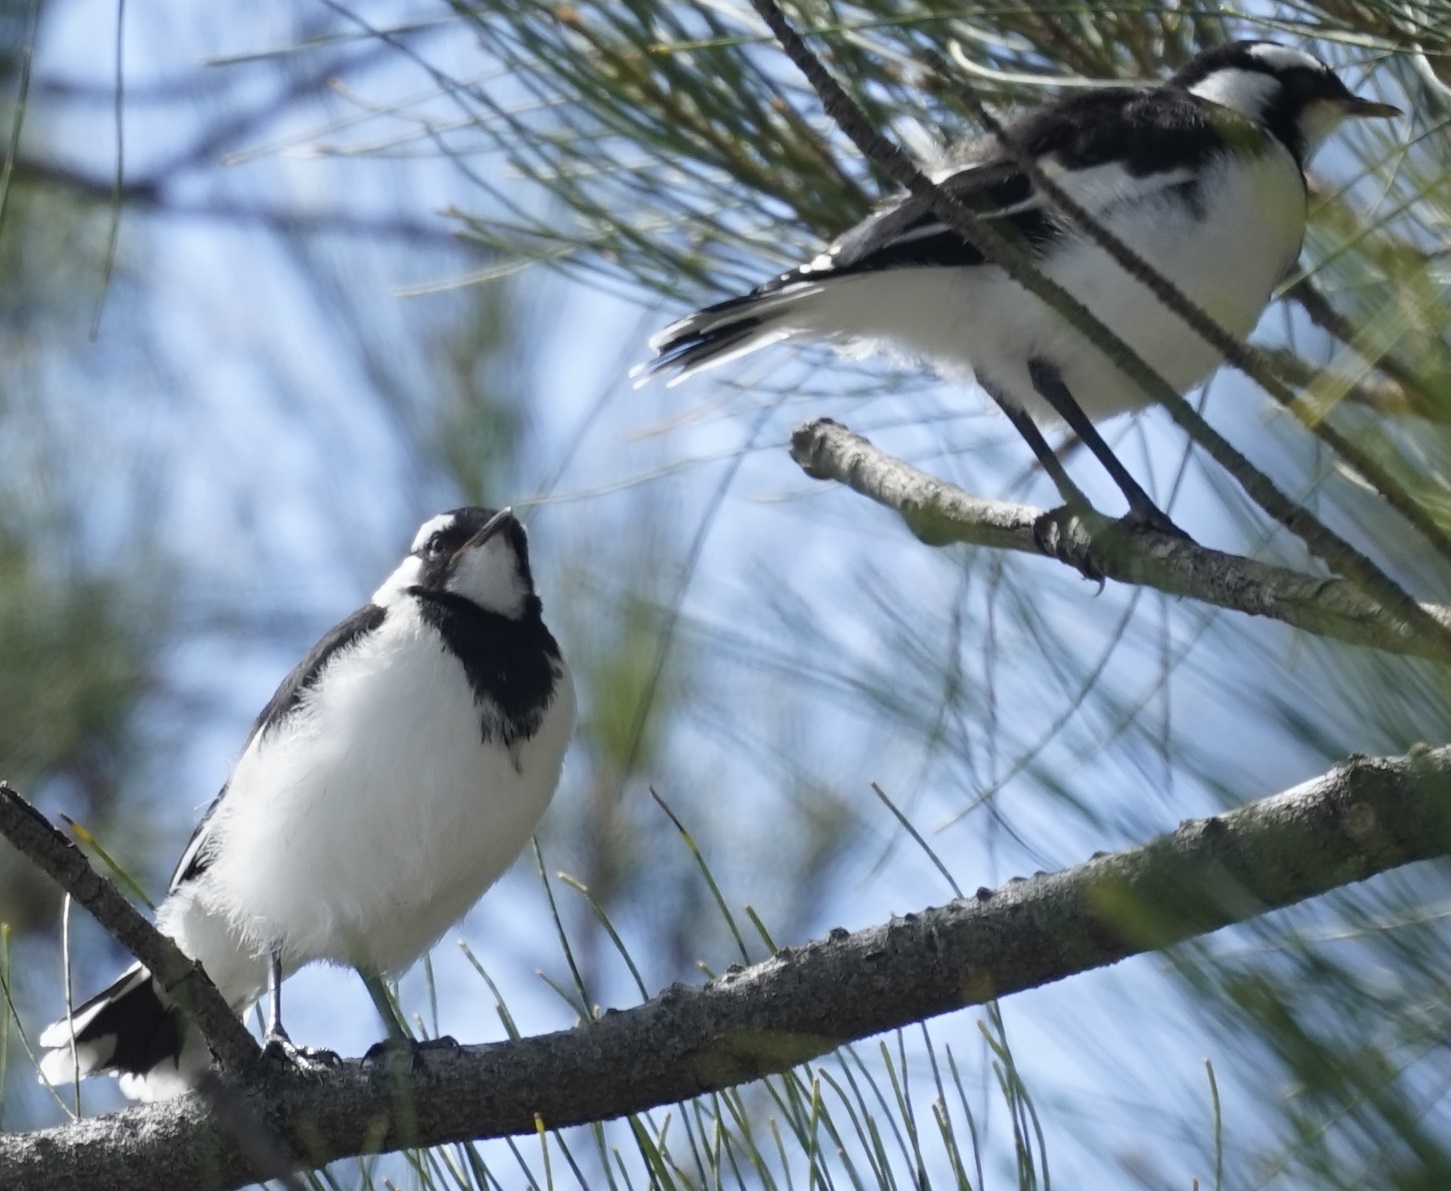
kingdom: Animalia
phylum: Chordata
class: Aves
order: Passeriformes
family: Monarchidae
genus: Grallina
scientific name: Grallina cyanoleuca
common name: Magpie-lark
